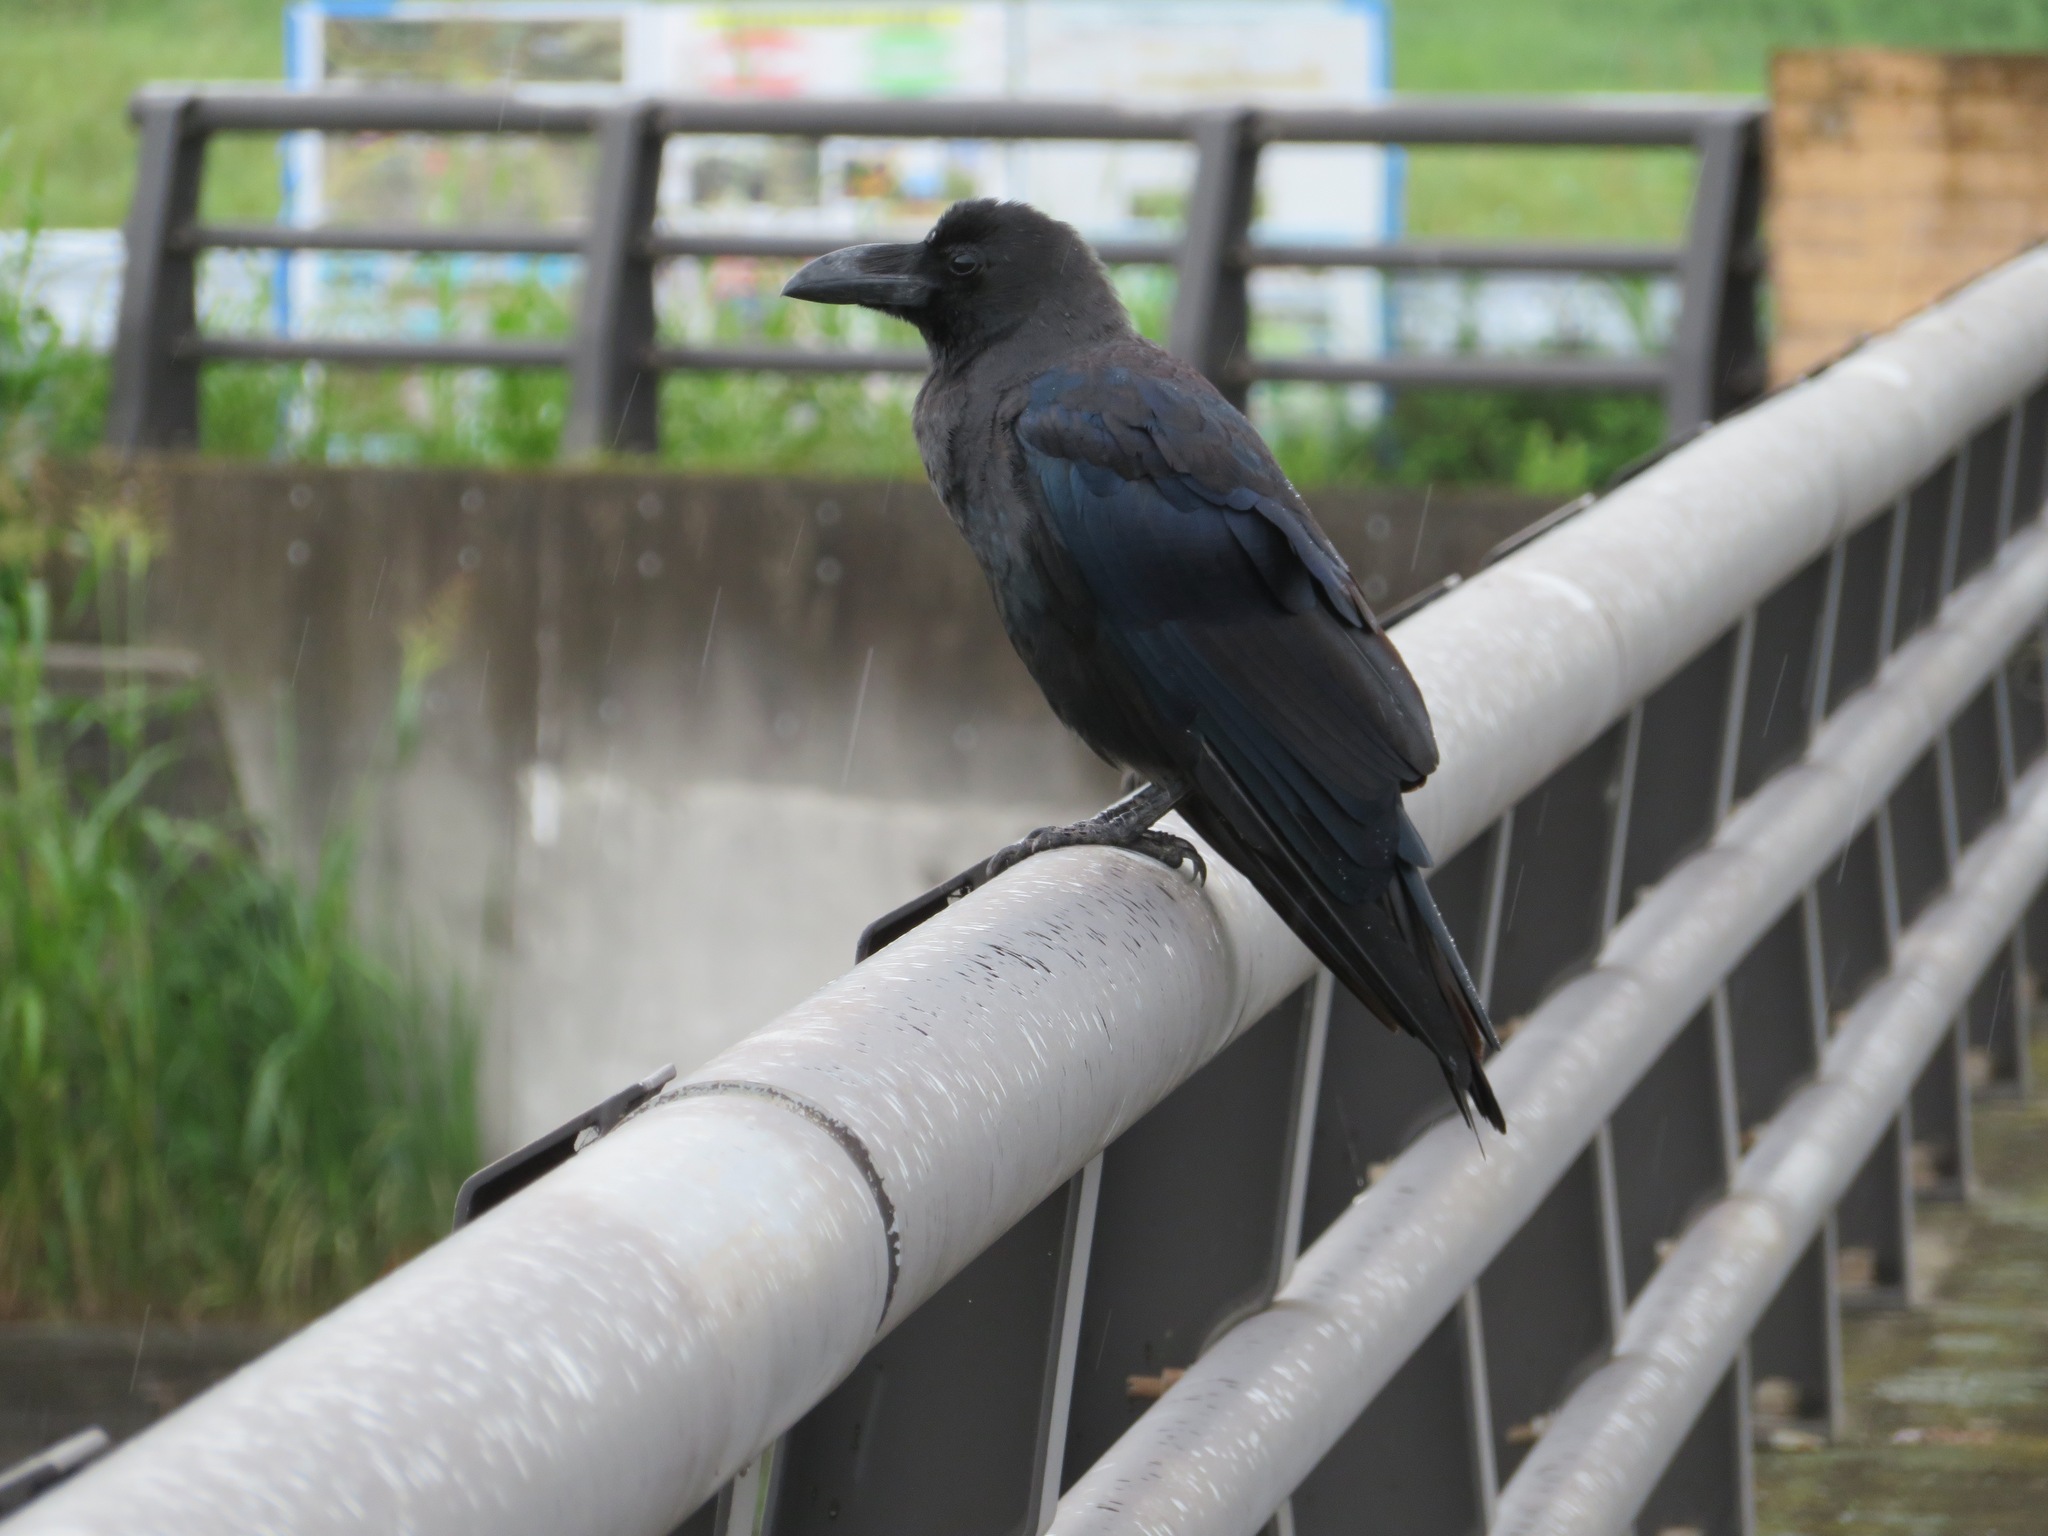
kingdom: Animalia
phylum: Chordata
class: Aves
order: Passeriformes
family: Corvidae
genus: Corvus
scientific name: Corvus macrorhynchos
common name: Large-billed crow
